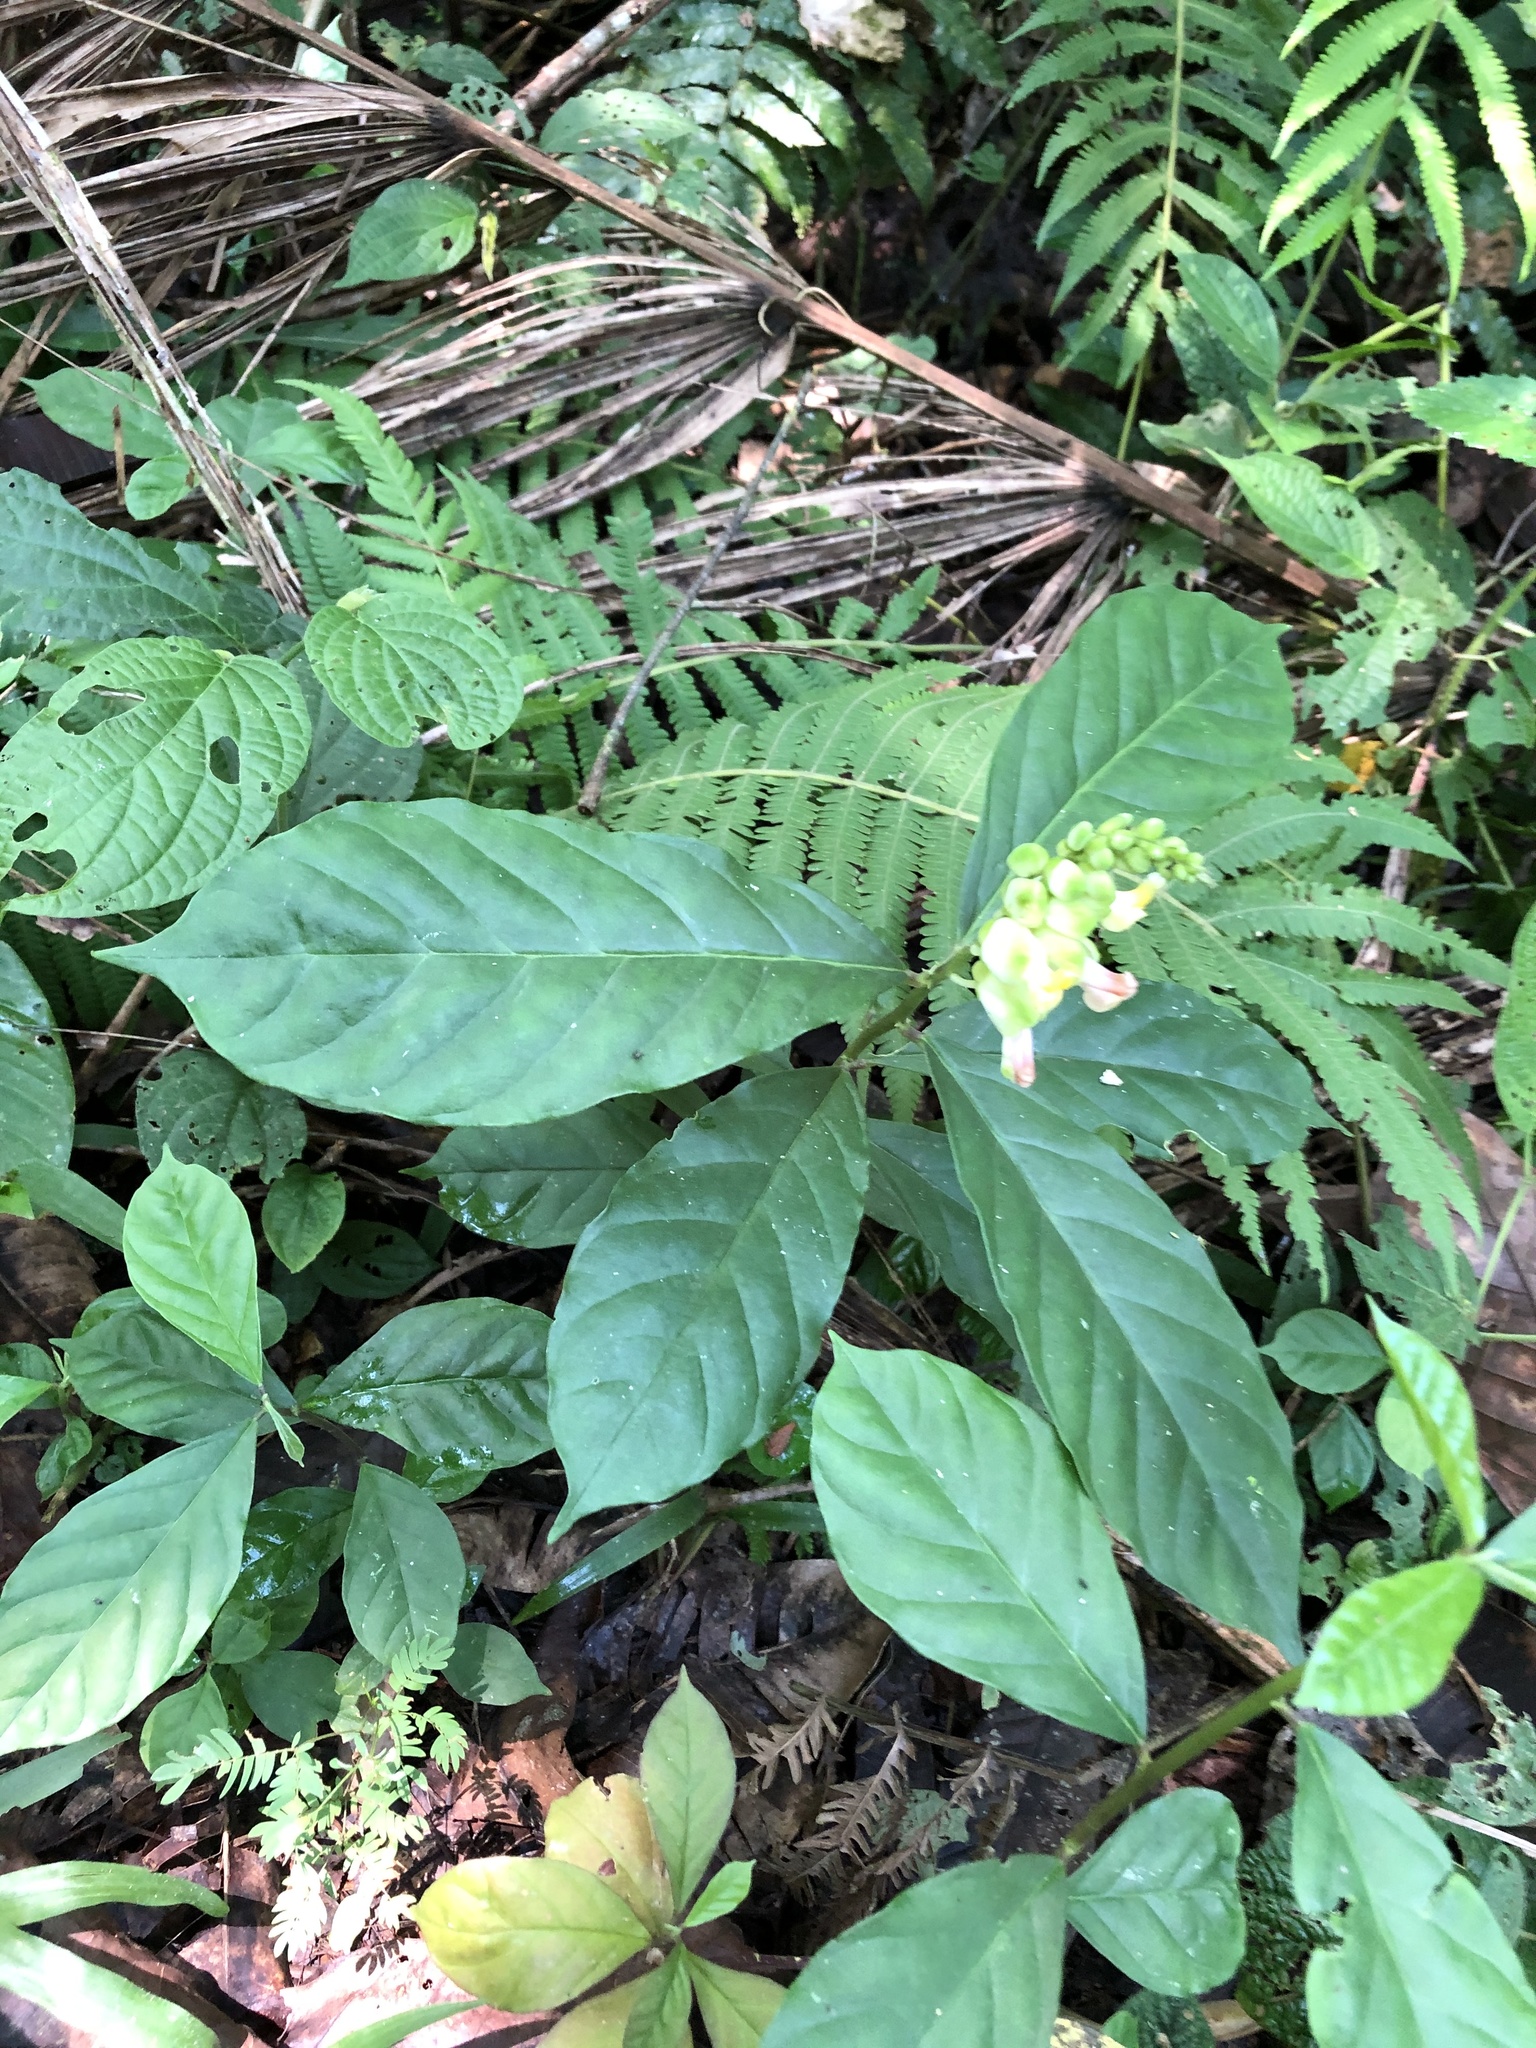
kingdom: Plantae
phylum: Tracheophyta
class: Magnoliopsida
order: Fabales
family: Polygalaceae
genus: Asemeia
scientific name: Asemeia acuminata
